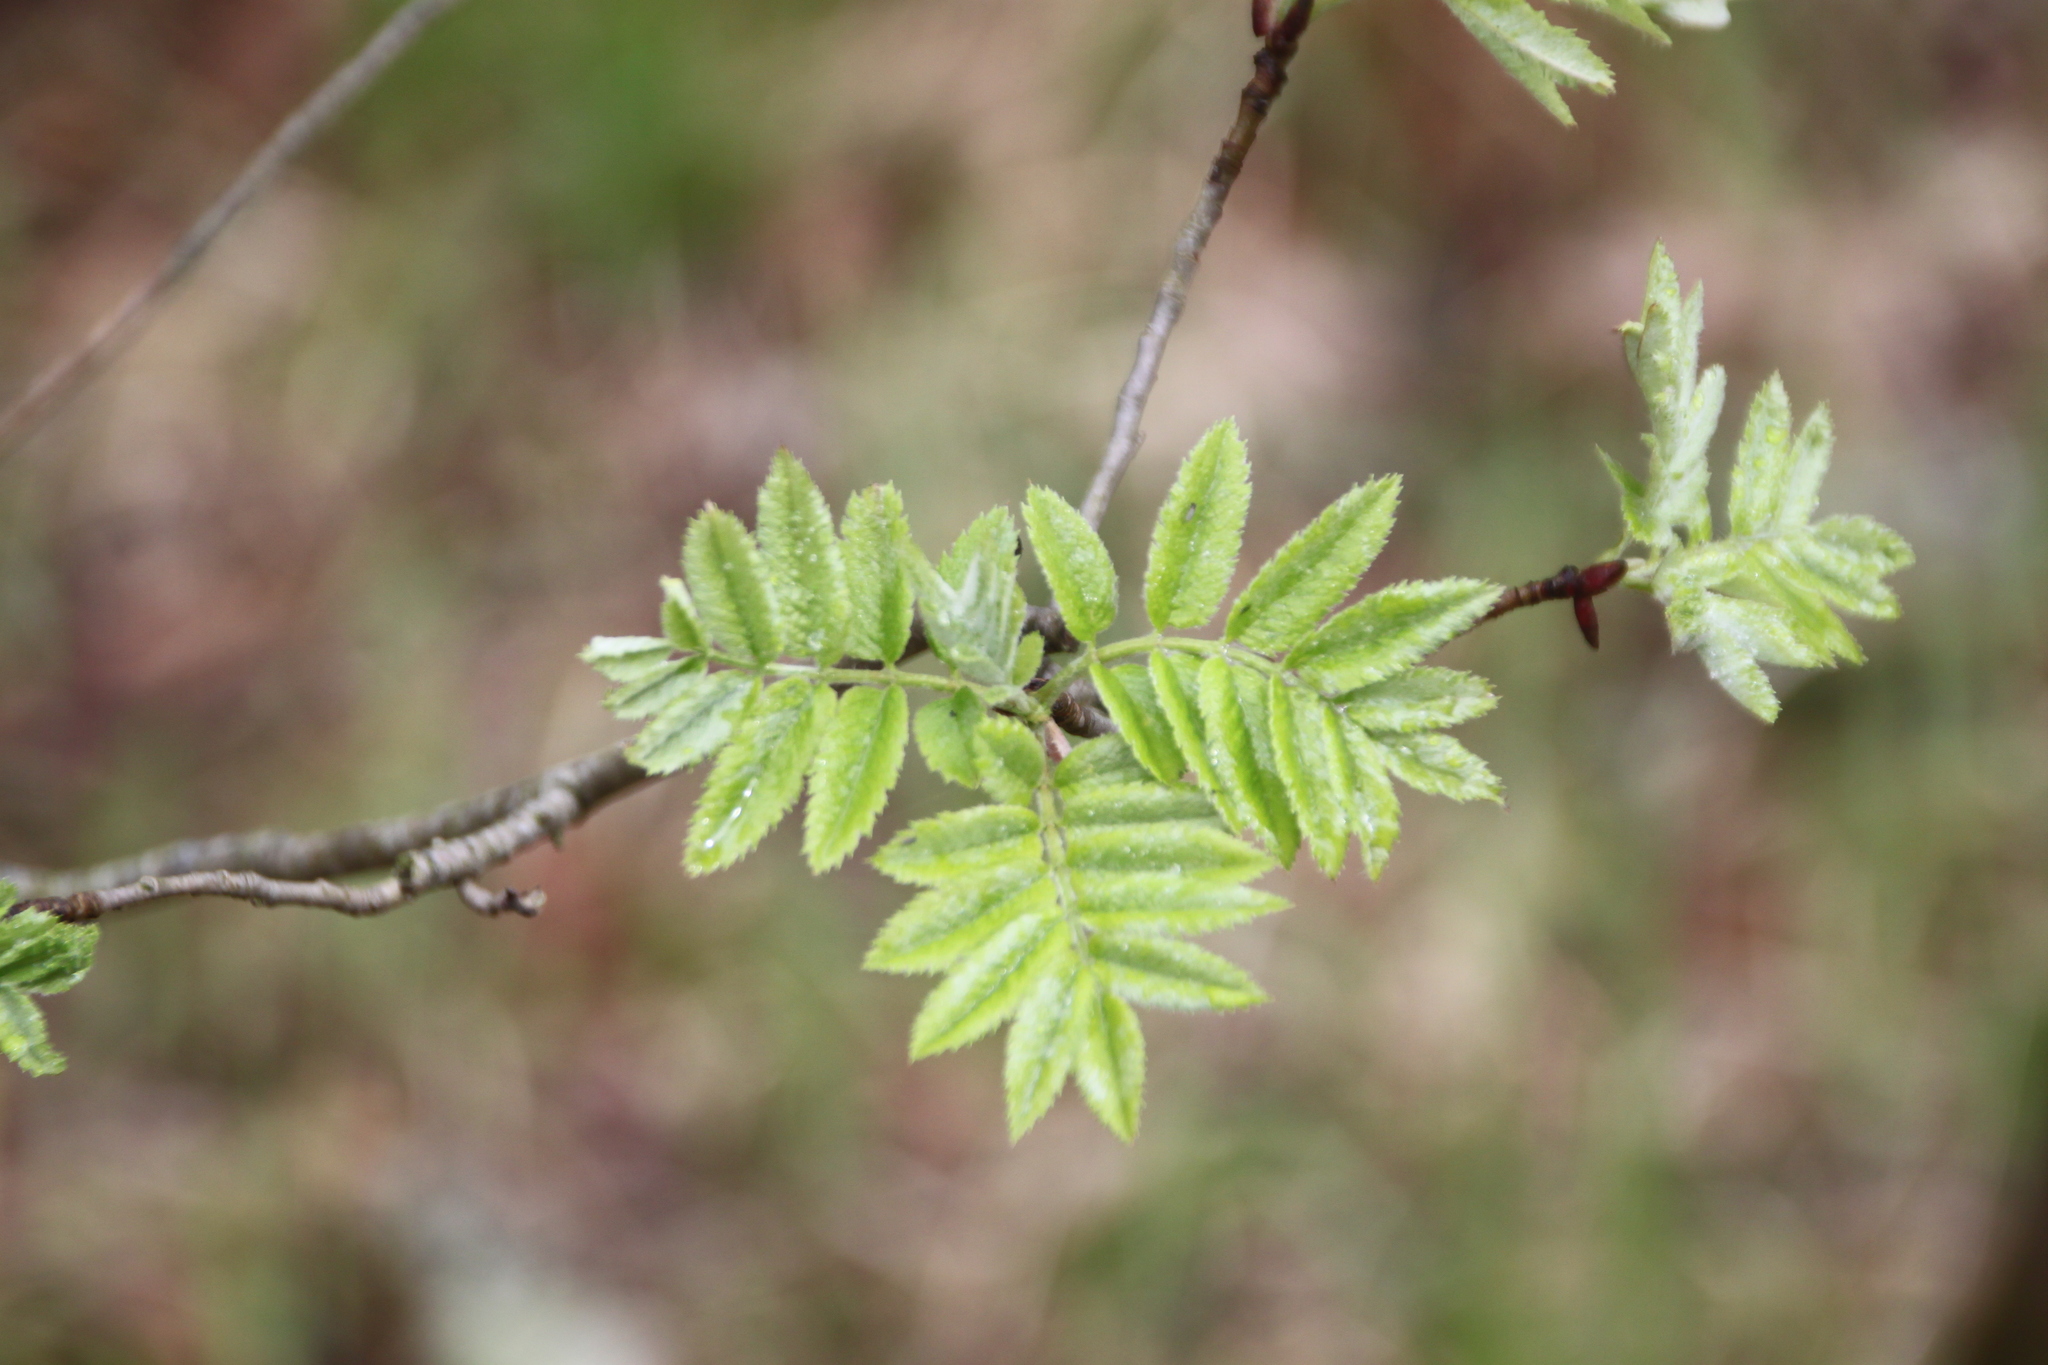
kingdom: Plantae
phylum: Tracheophyta
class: Magnoliopsida
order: Rosales
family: Rosaceae
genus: Sorbus
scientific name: Sorbus aucuparia
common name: Rowan
